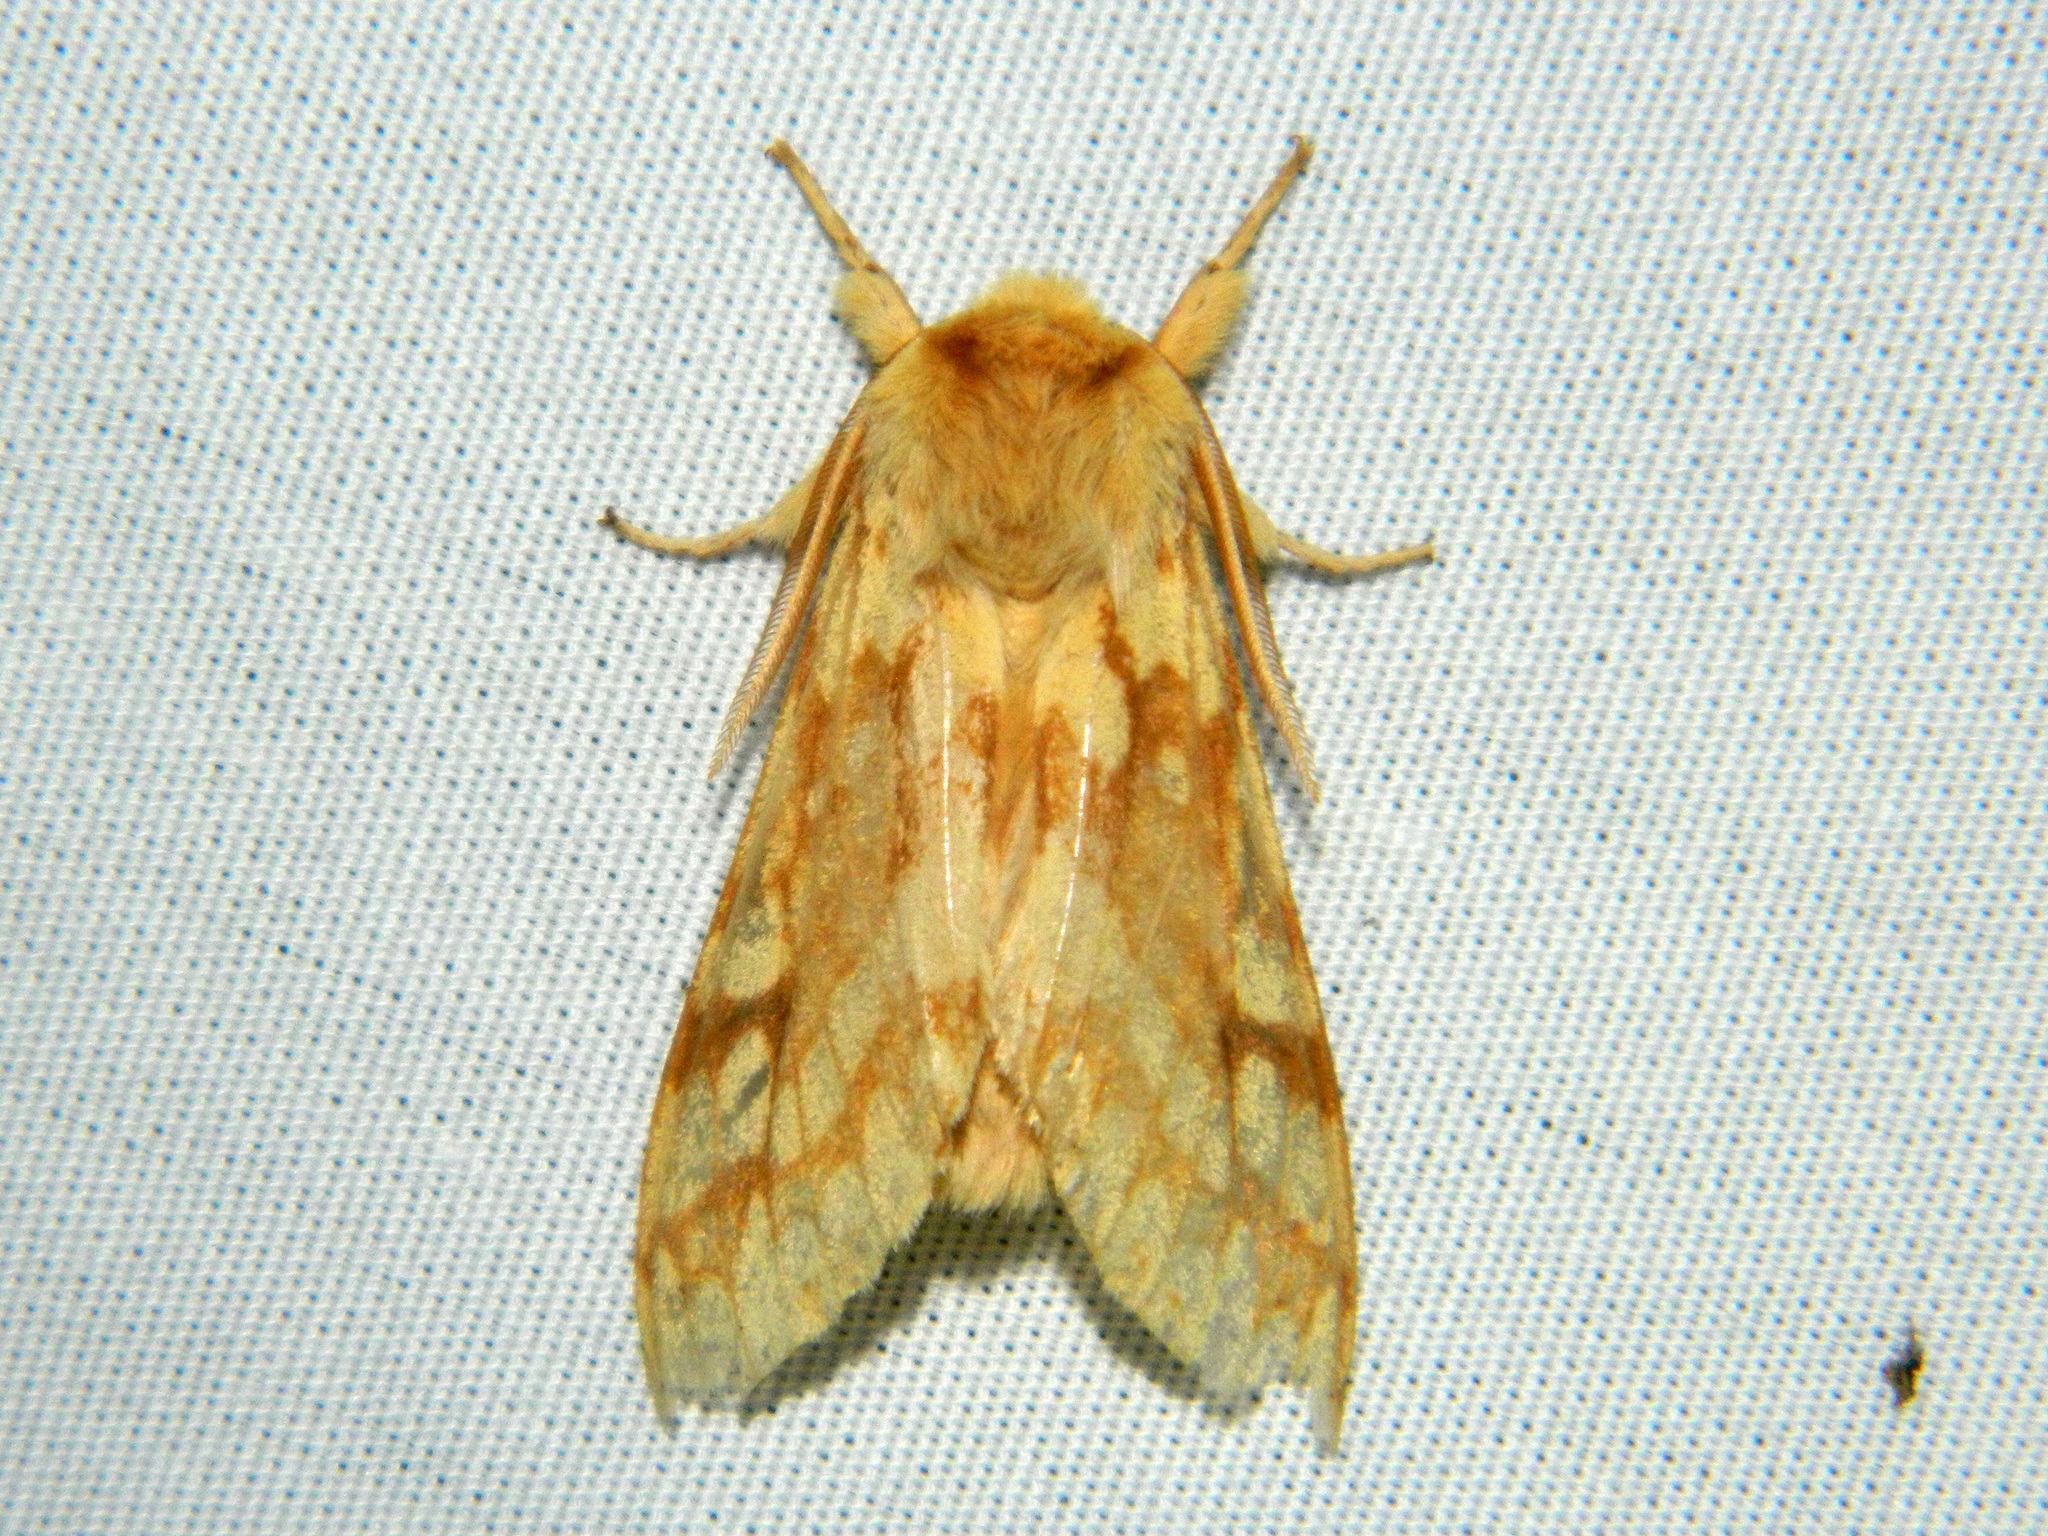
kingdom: Animalia
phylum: Arthropoda
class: Insecta
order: Lepidoptera
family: Erebidae
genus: Lophocampa
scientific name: Lophocampa maculata
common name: Spotted tussock moth
